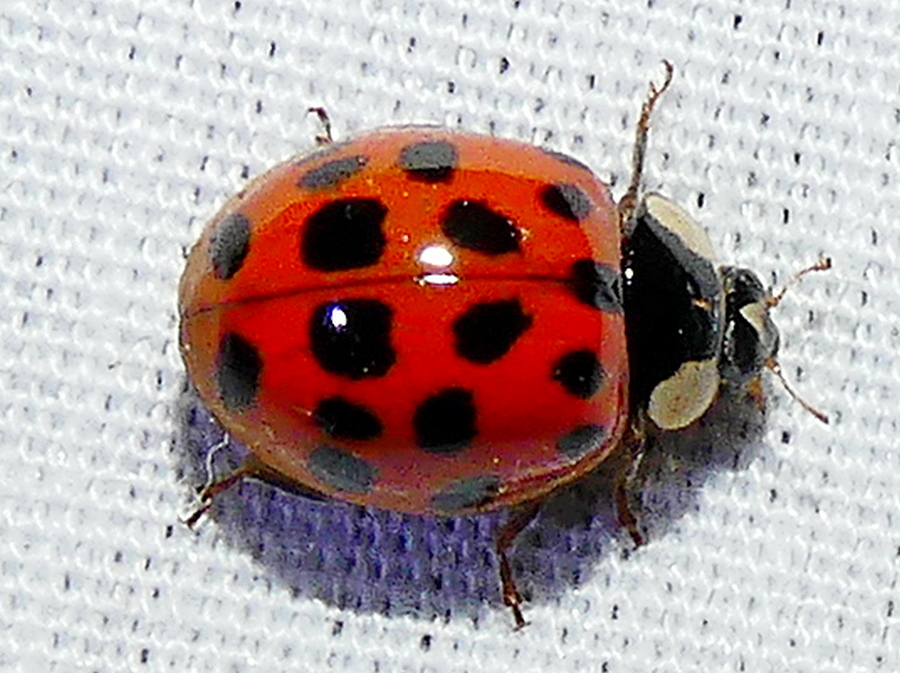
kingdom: Animalia
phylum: Arthropoda
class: Insecta
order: Coleoptera
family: Coccinellidae
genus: Harmonia
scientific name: Harmonia axyridis
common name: Harlequin ladybird
